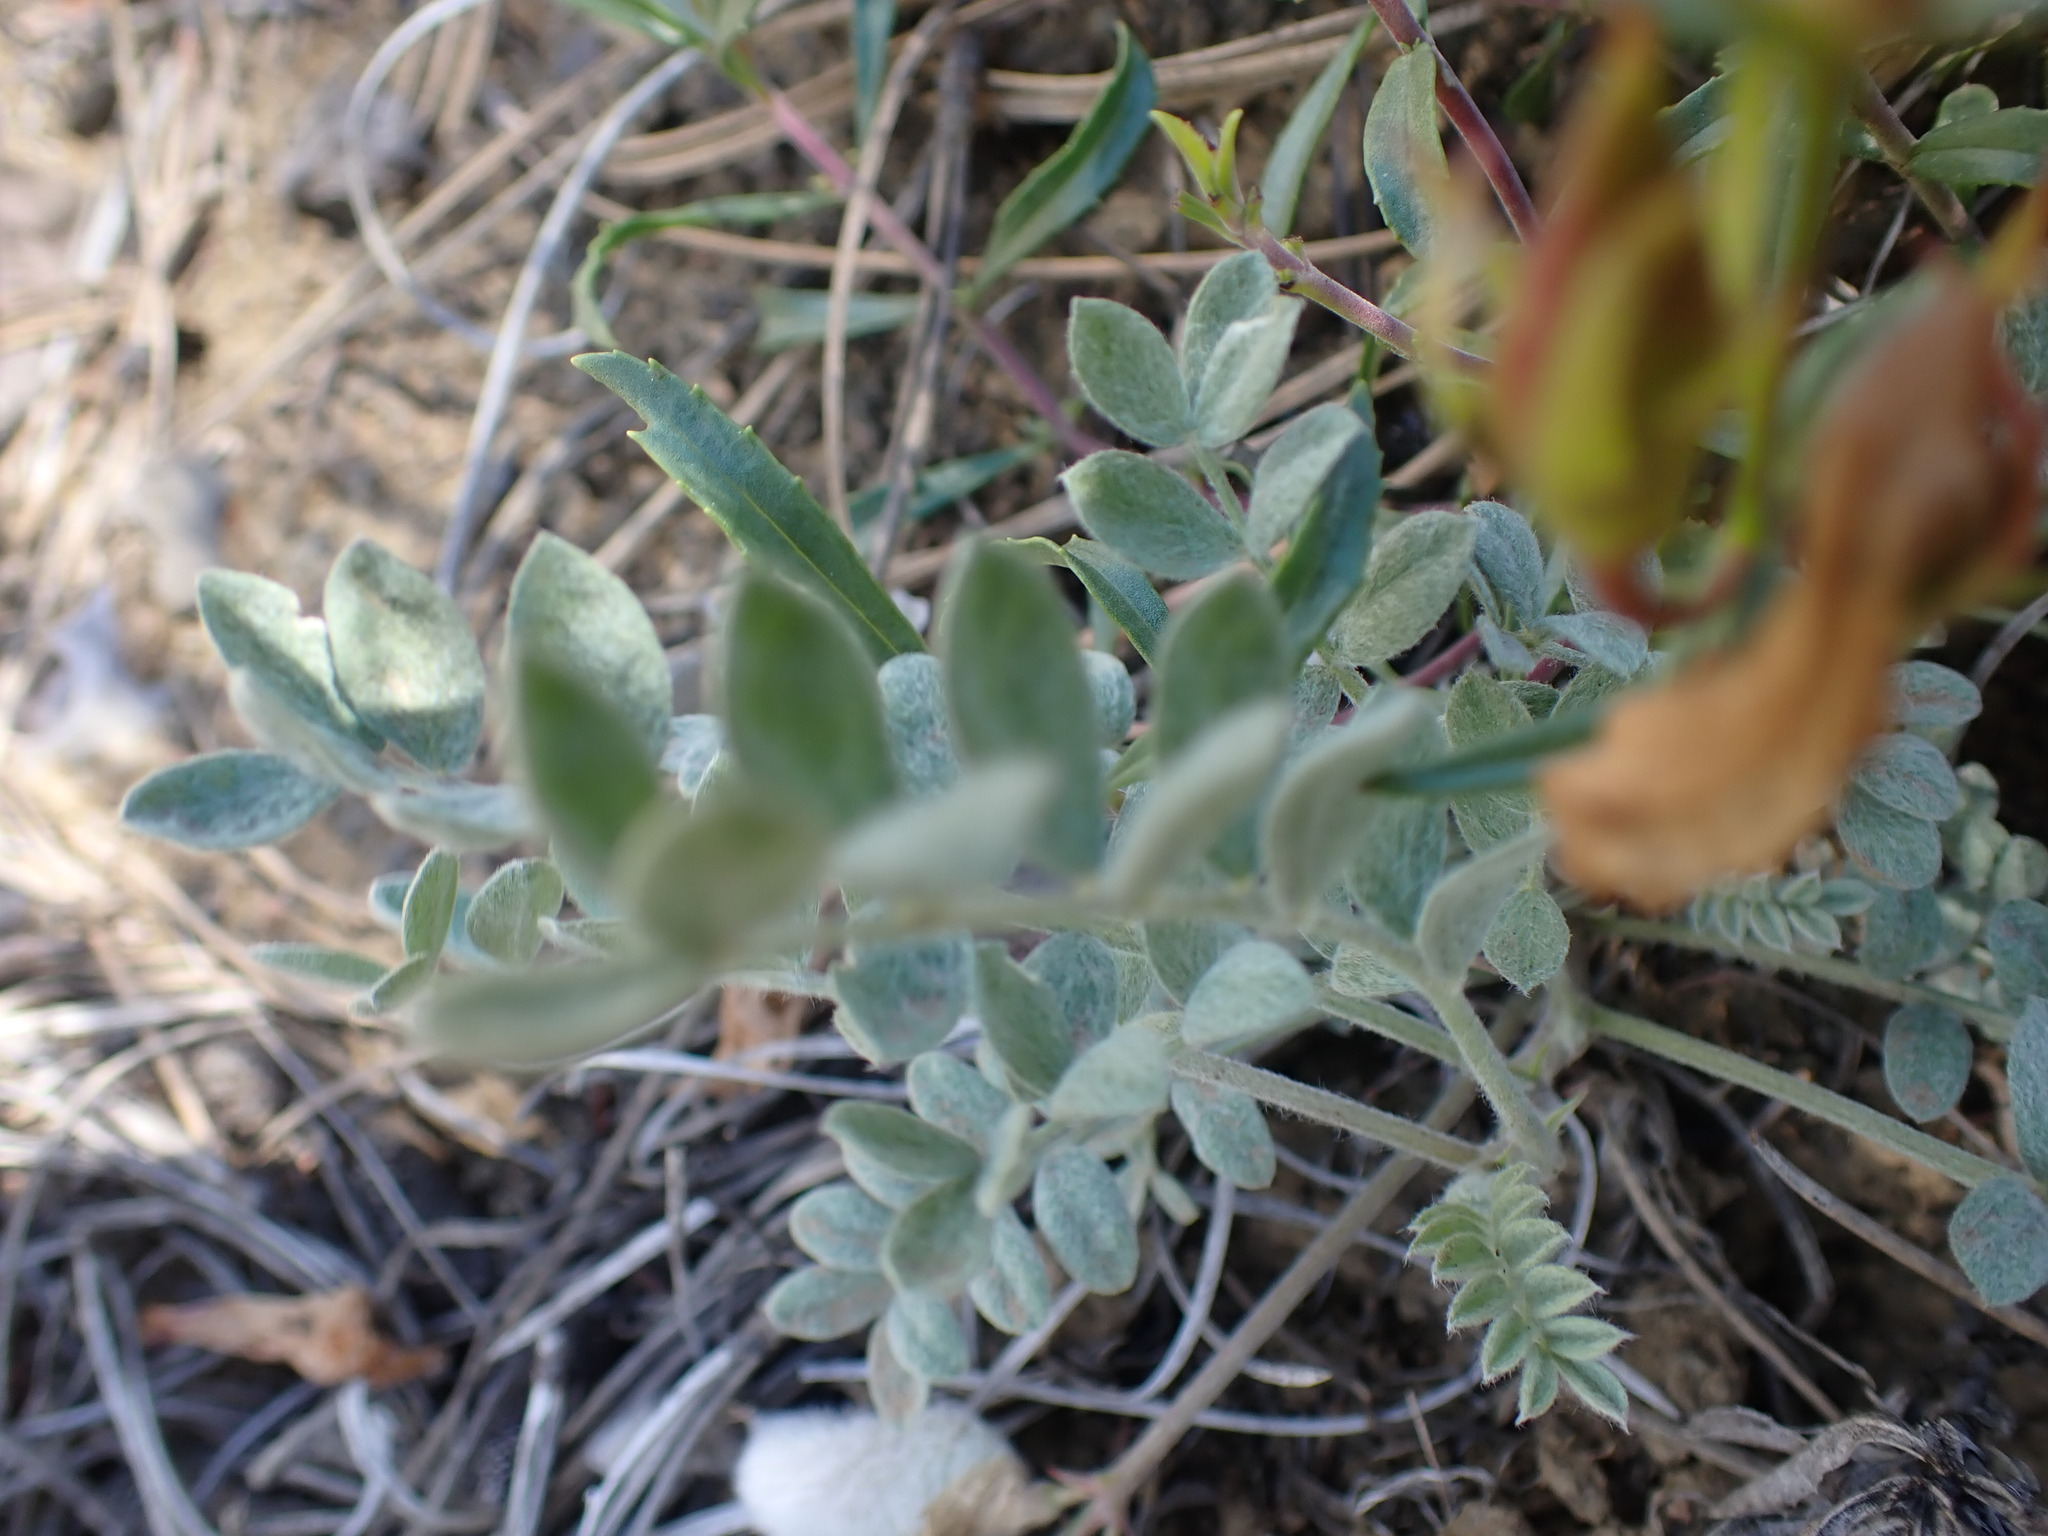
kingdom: Plantae
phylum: Tracheophyta
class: Magnoliopsida
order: Fabales
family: Fabaceae
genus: Astragalus
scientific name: Astragalus purshii
